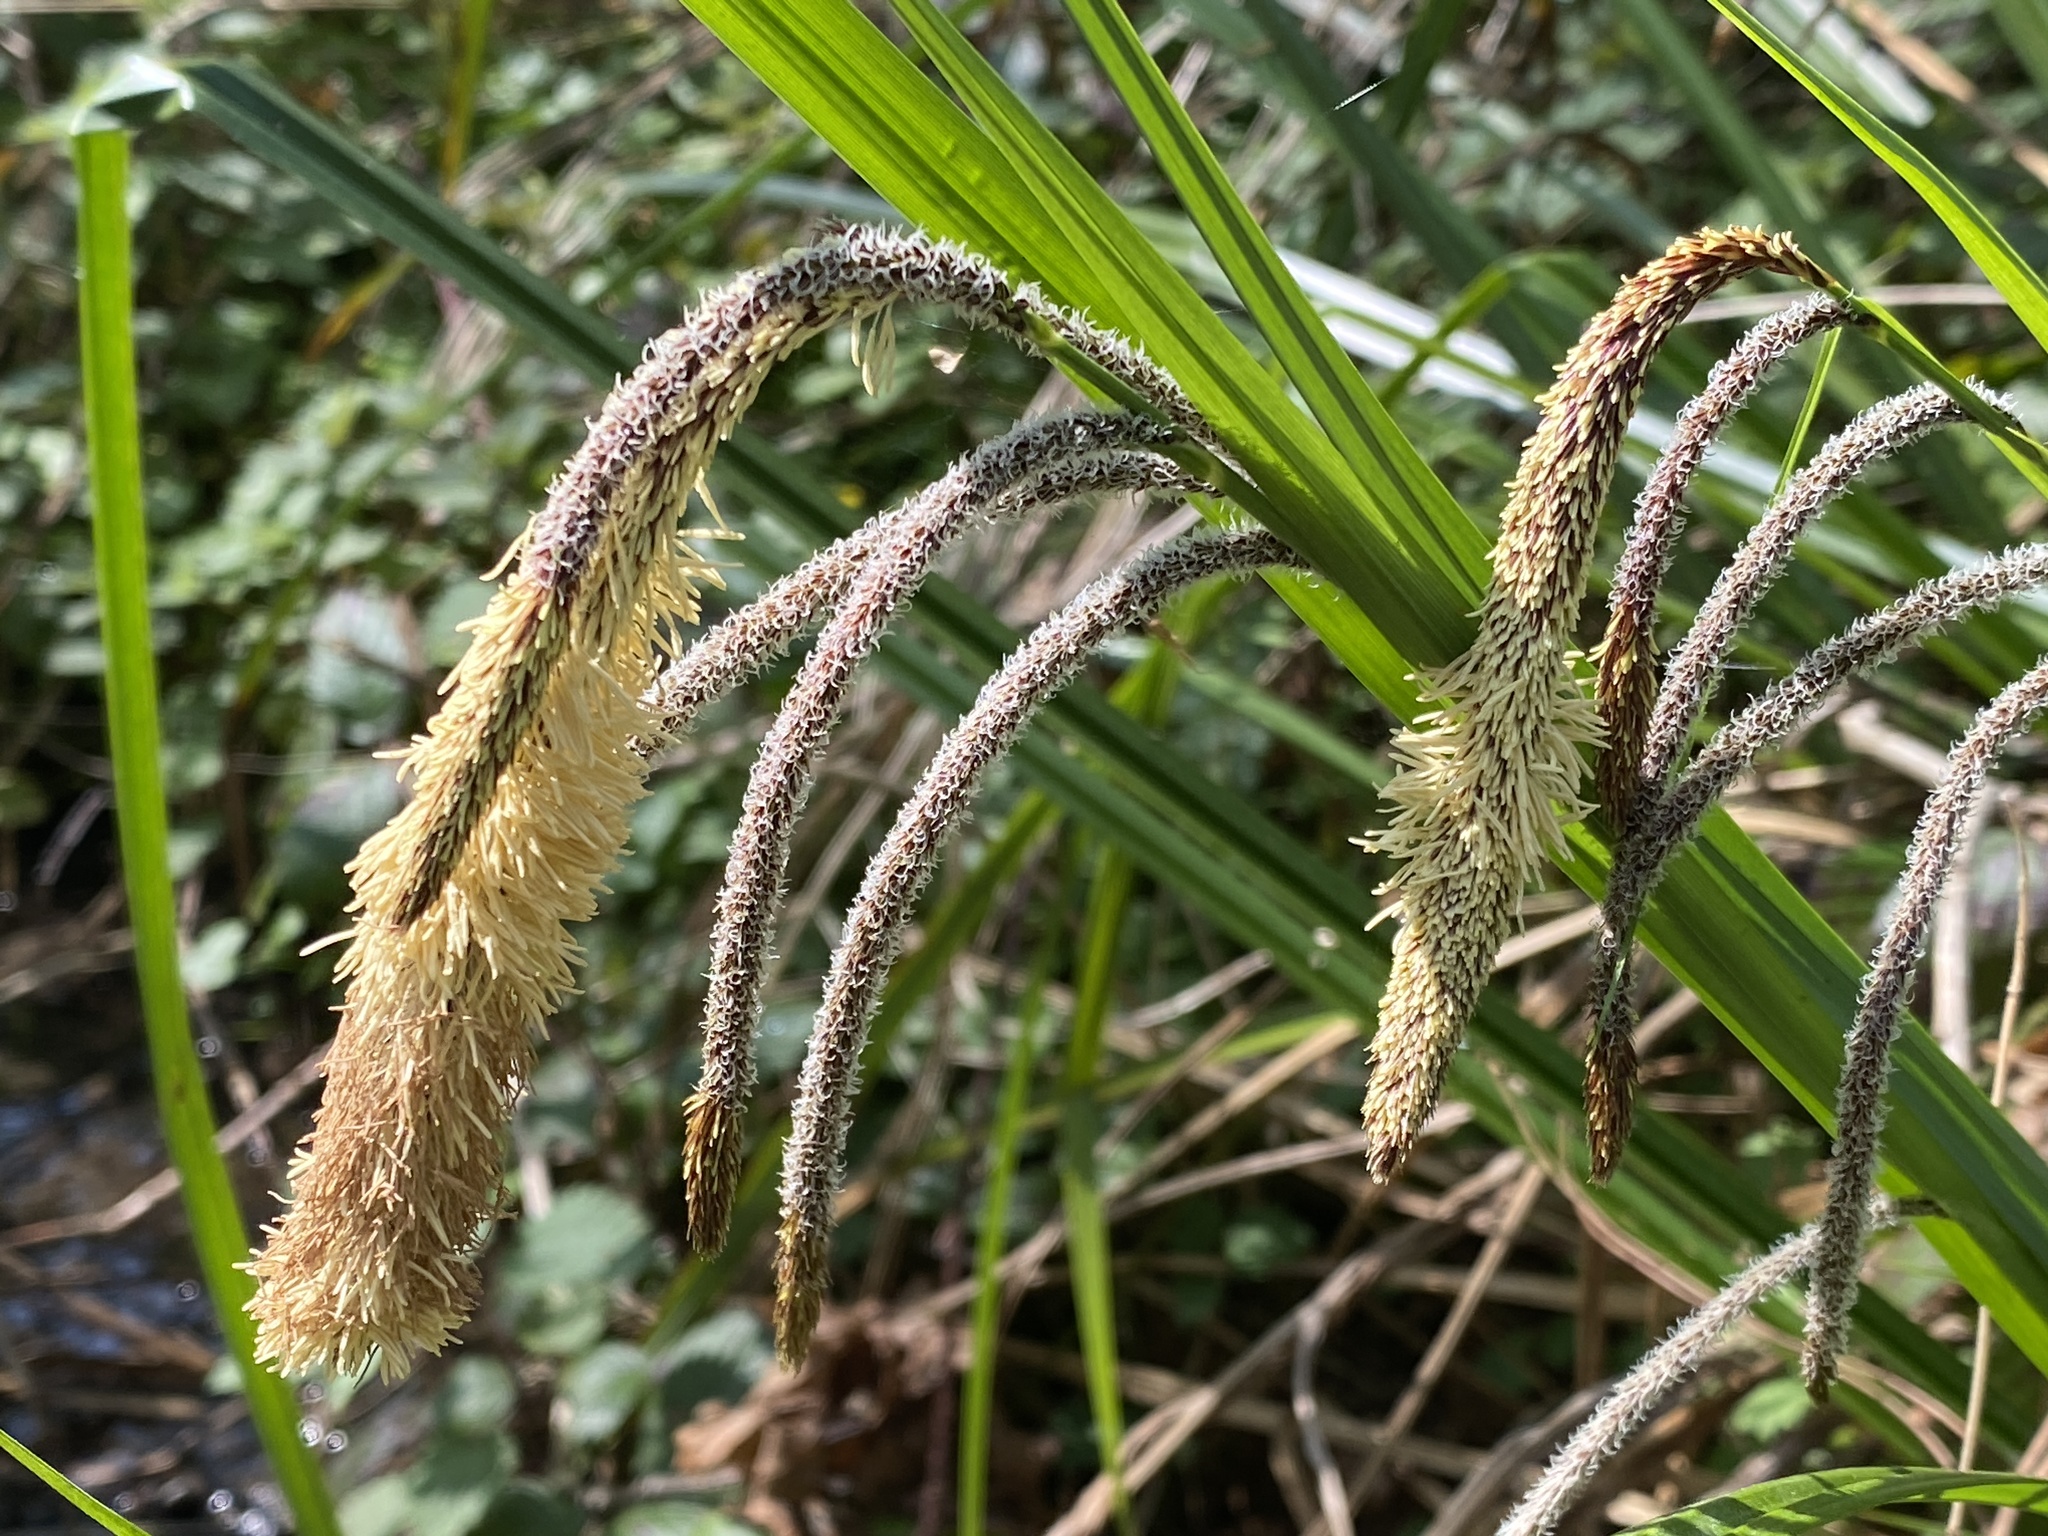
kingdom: Plantae
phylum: Tracheophyta
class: Liliopsida
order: Poales
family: Cyperaceae
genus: Carex
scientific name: Carex pendula
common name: Pendulous sedge
